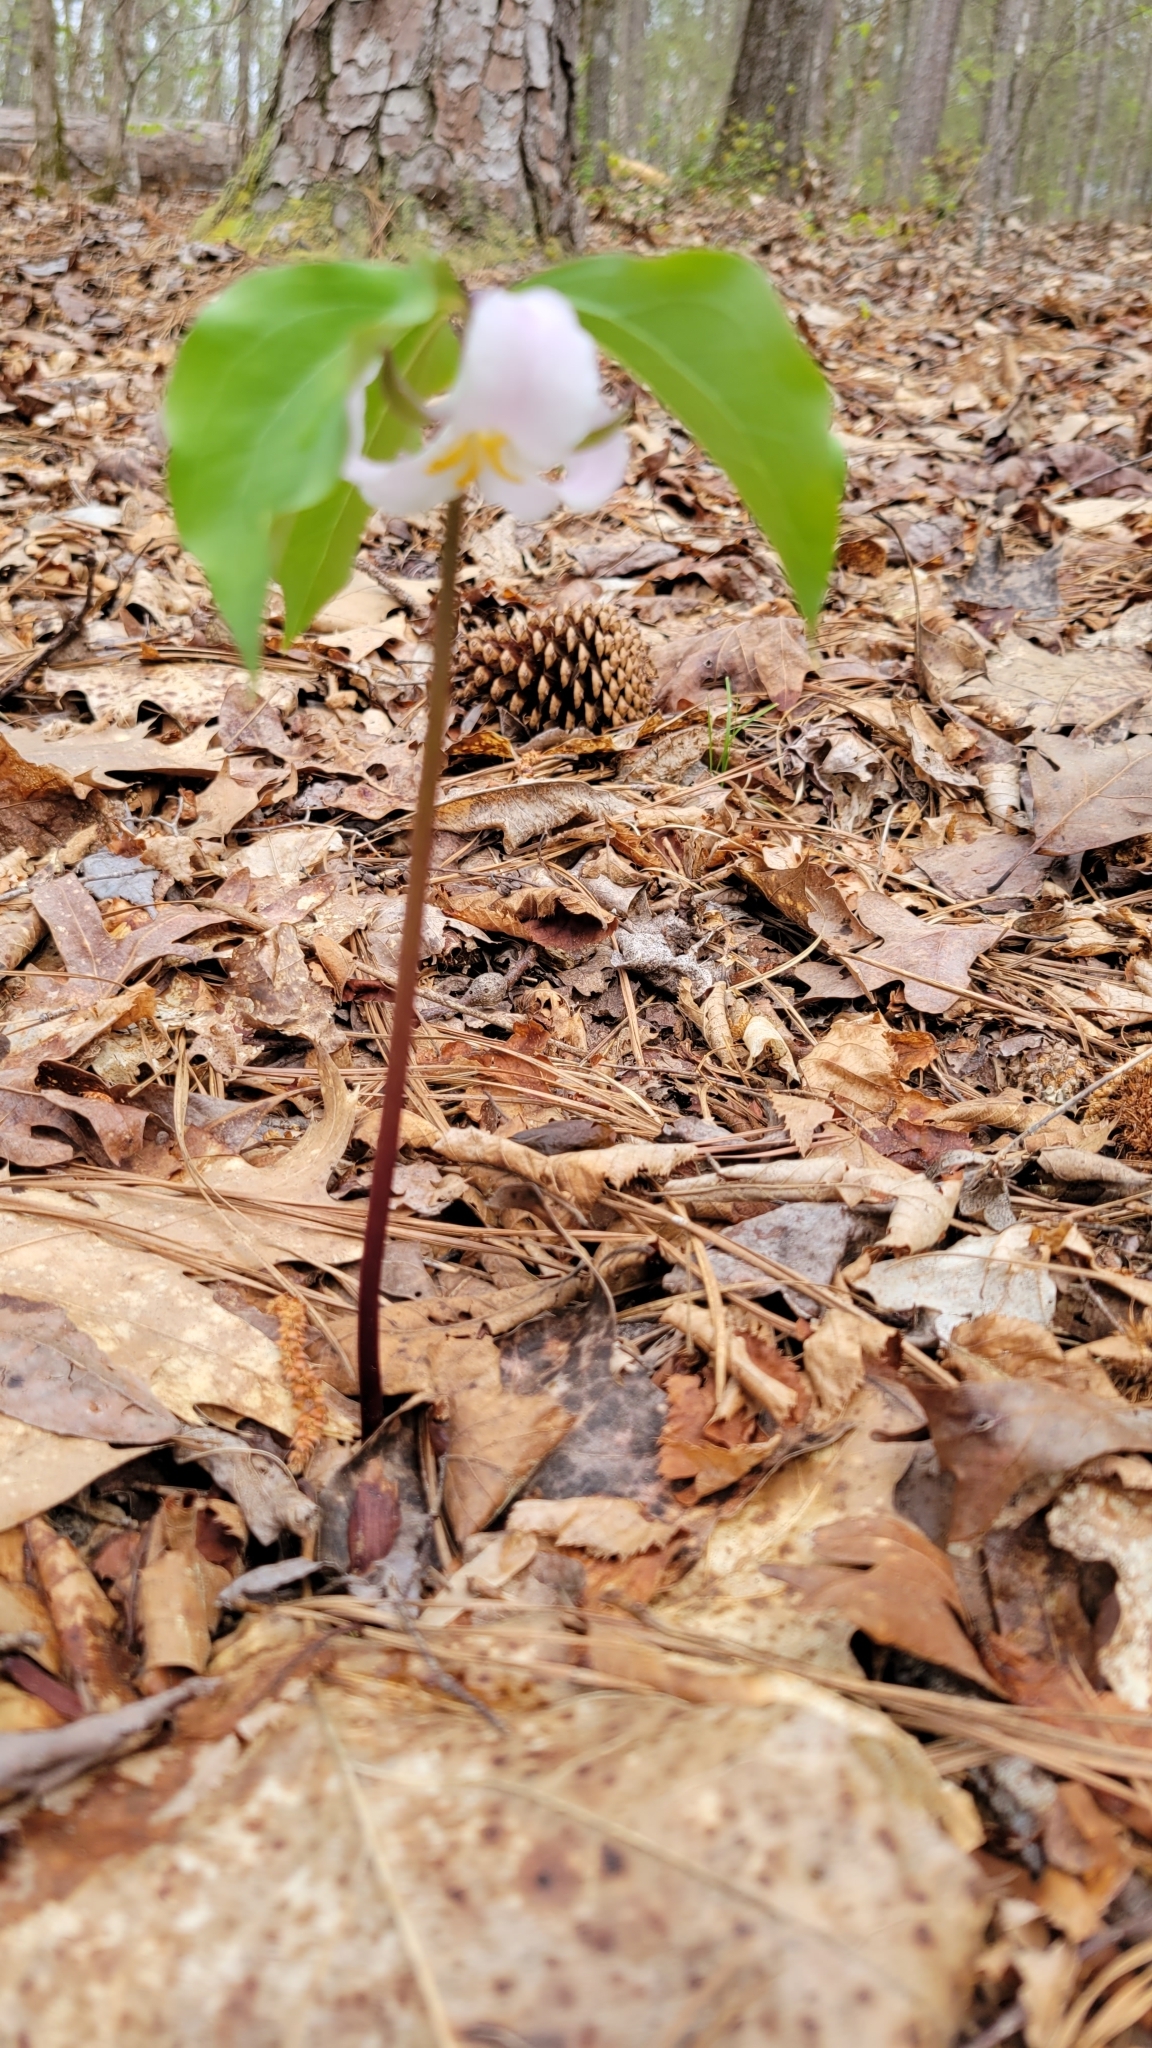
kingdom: Plantae
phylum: Tracheophyta
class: Liliopsida
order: Liliales
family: Melanthiaceae
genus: Trillium
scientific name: Trillium catesbaei
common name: Bashful trillium
